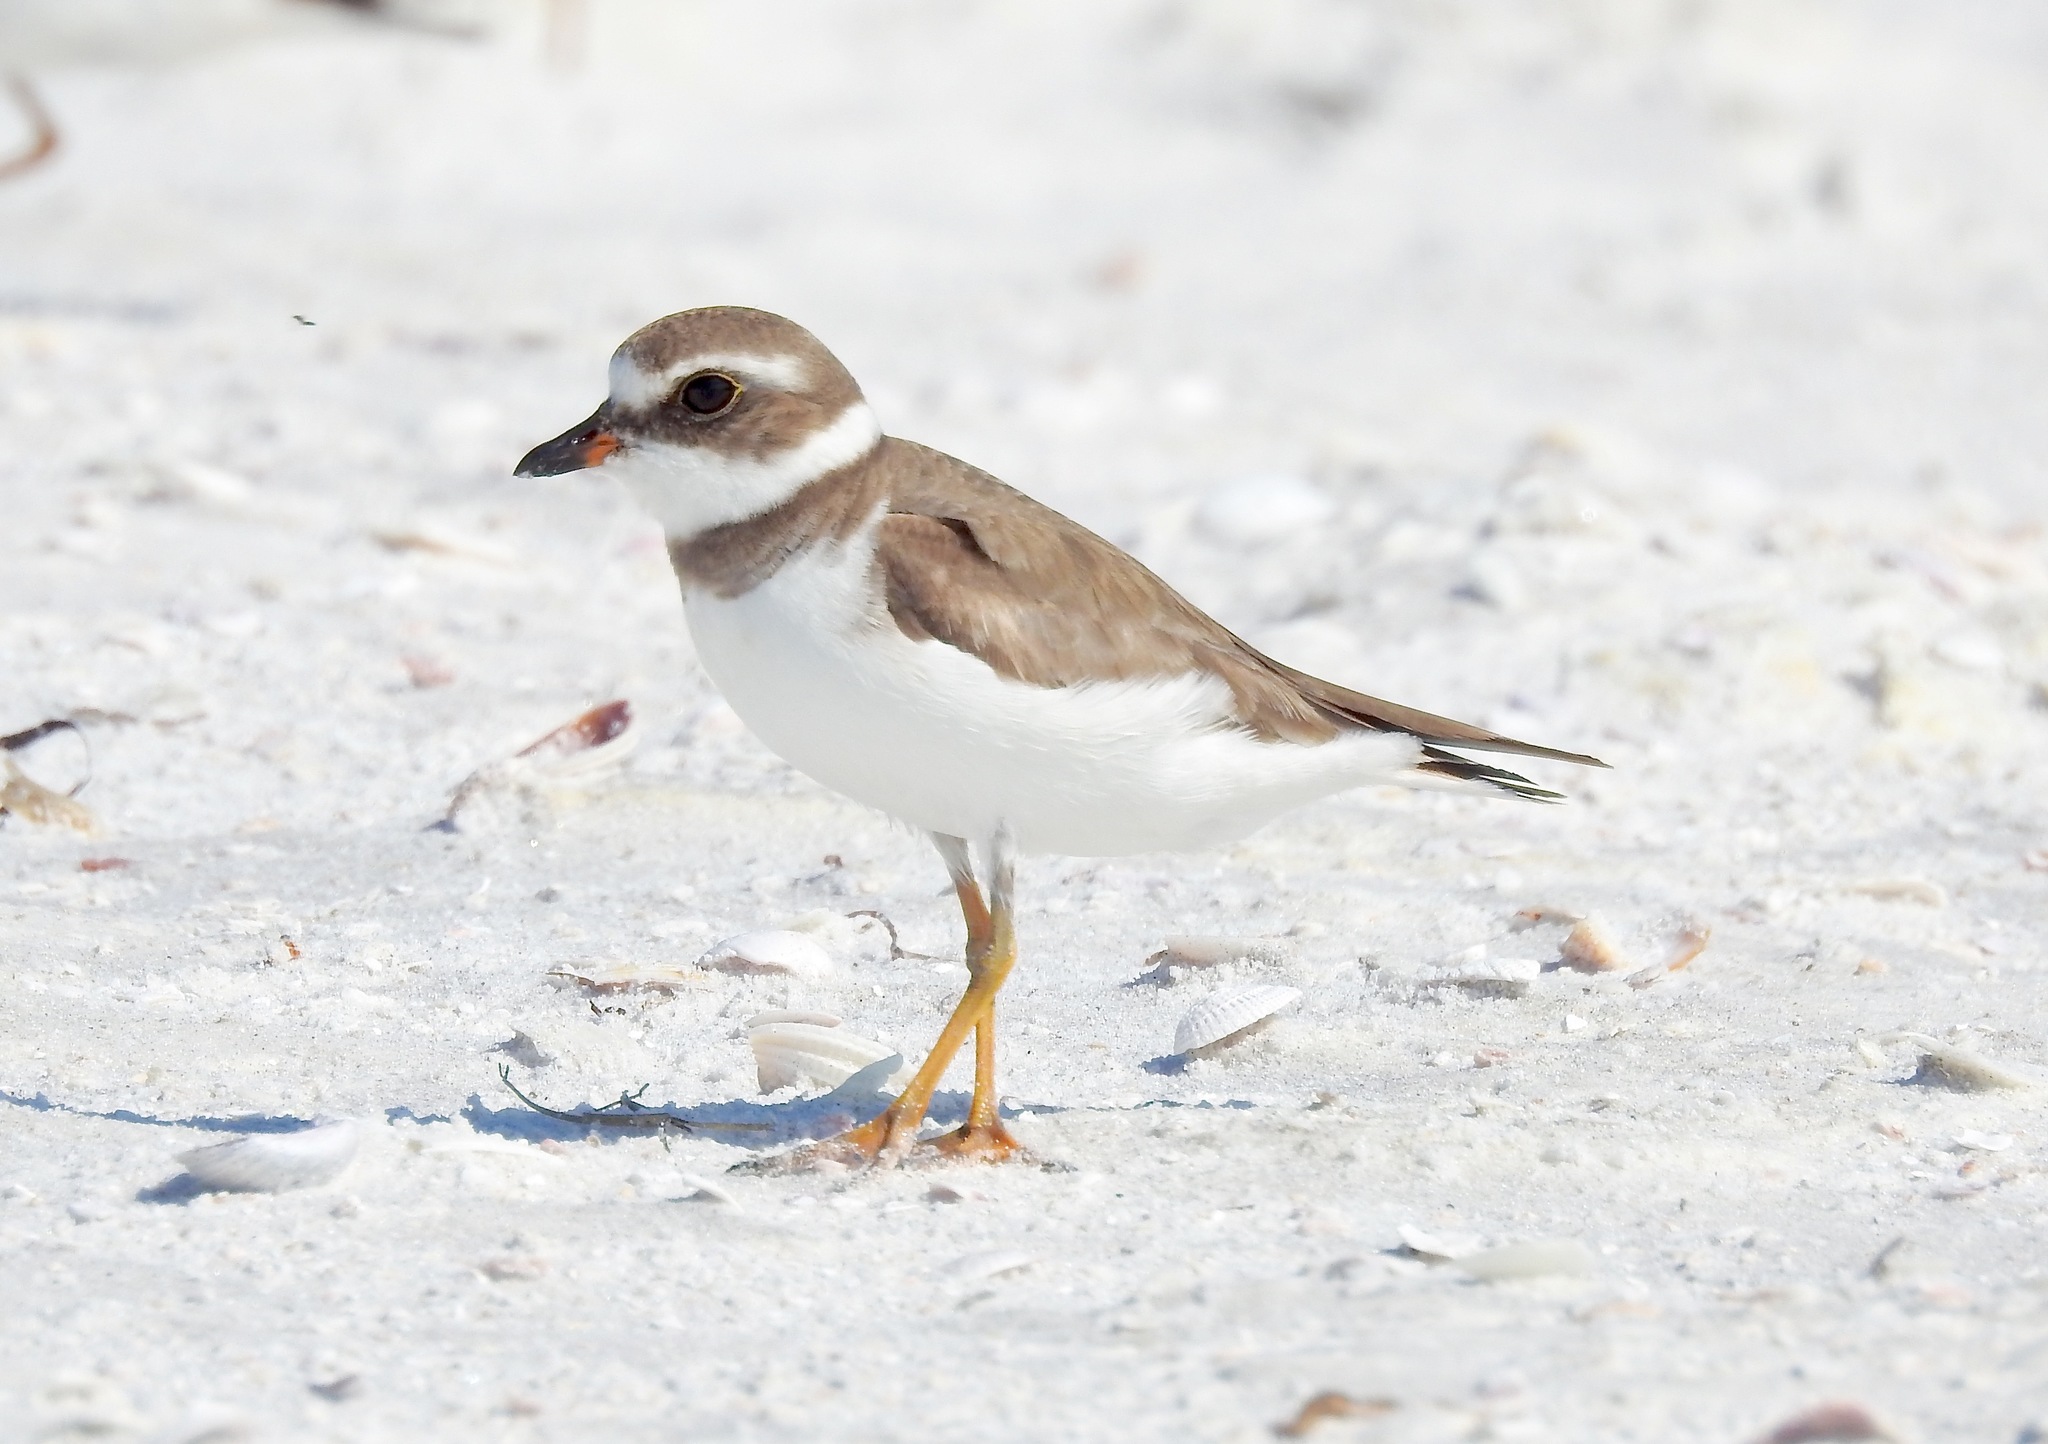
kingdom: Animalia
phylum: Chordata
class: Aves
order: Charadriiformes
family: Charadriidae
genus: Charadrius
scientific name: Charadrius semipalmatus
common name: Semipalmated plover
